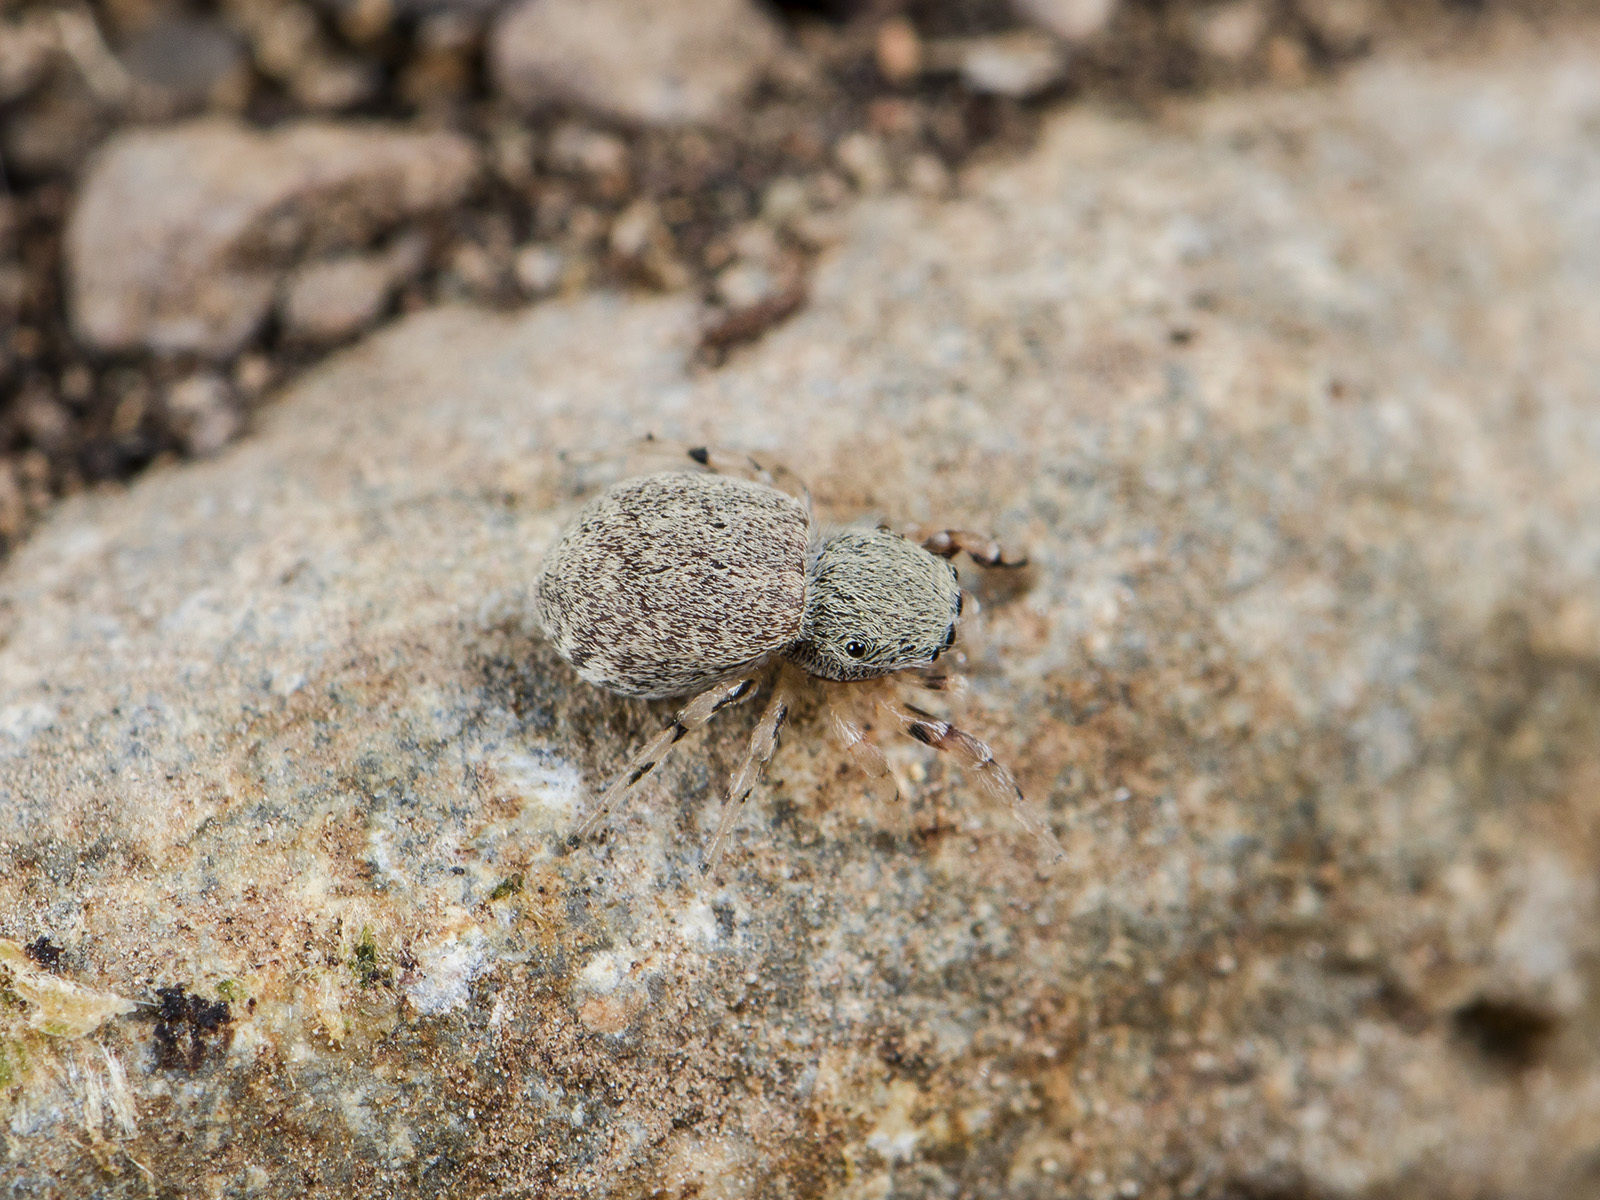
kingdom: Animalia
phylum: Arthropoda
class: Arachnida
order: Araneae
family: Salticidae
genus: Ballus
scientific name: Ballus chalybeius
